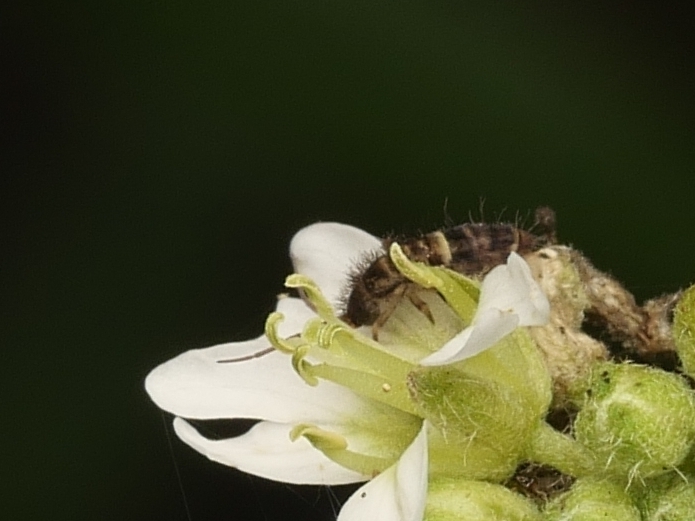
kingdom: Animalia
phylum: Arthropoda
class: Collembola
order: Entomobryomorpha
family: Orchesellidae
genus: Orchesella
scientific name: Orchesella cincta
